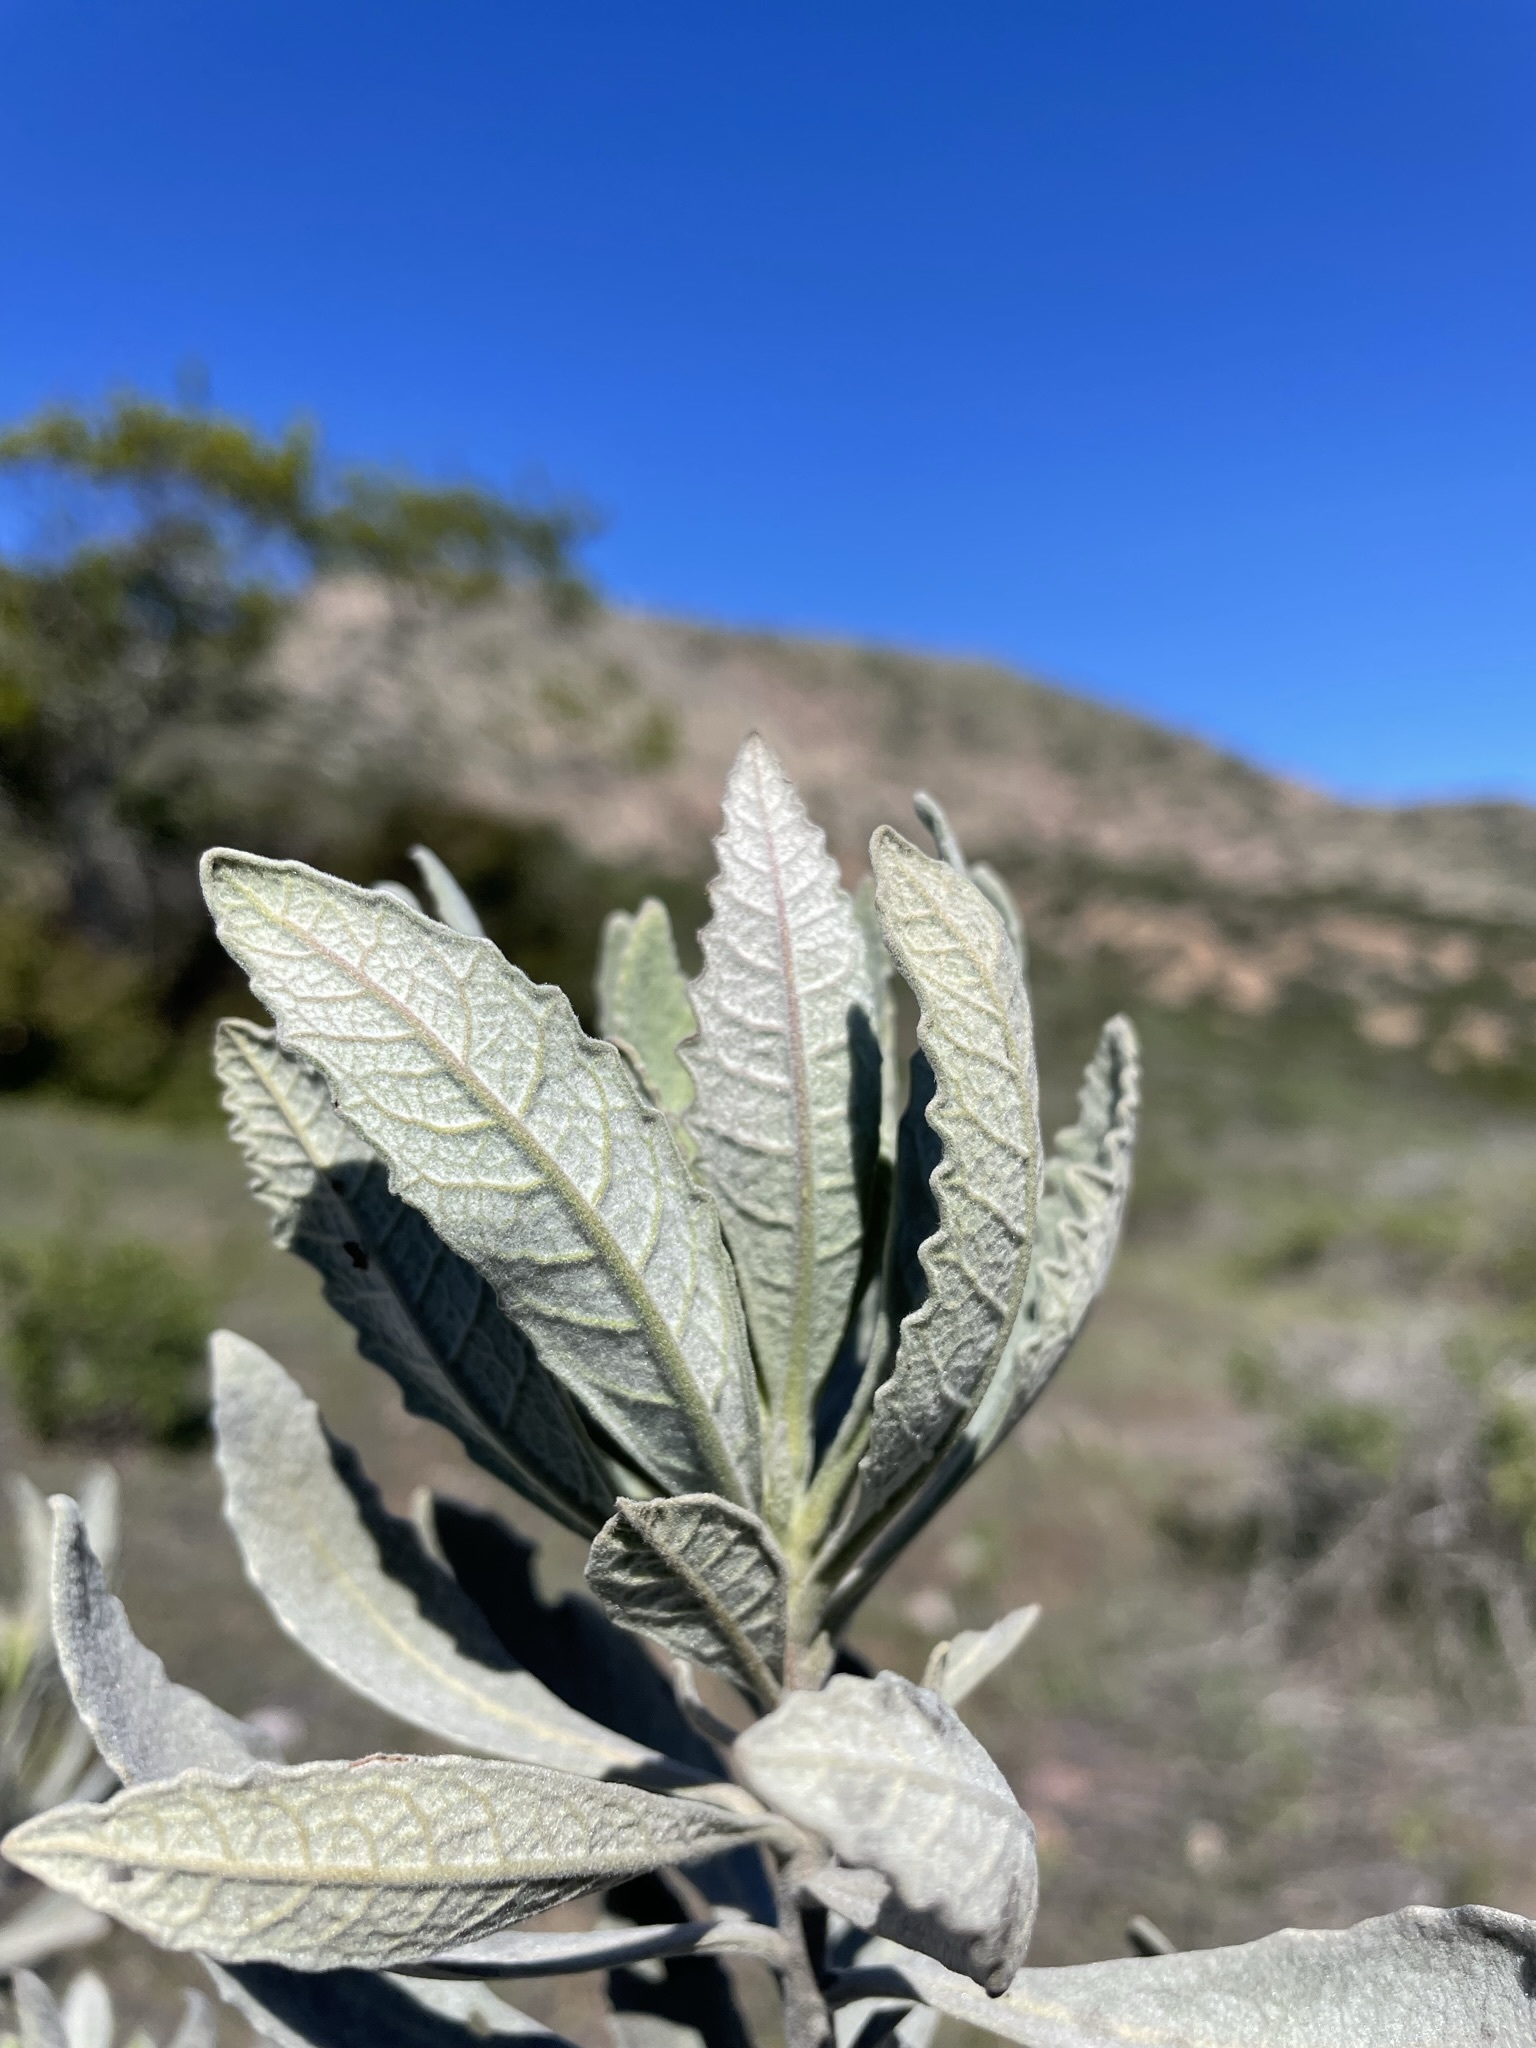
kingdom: Plantae
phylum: Tracheophyta
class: Magnoliopsida
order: Boraginales
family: Namaceae
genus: Eriodictyon
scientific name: Eriodictyon traskiae
